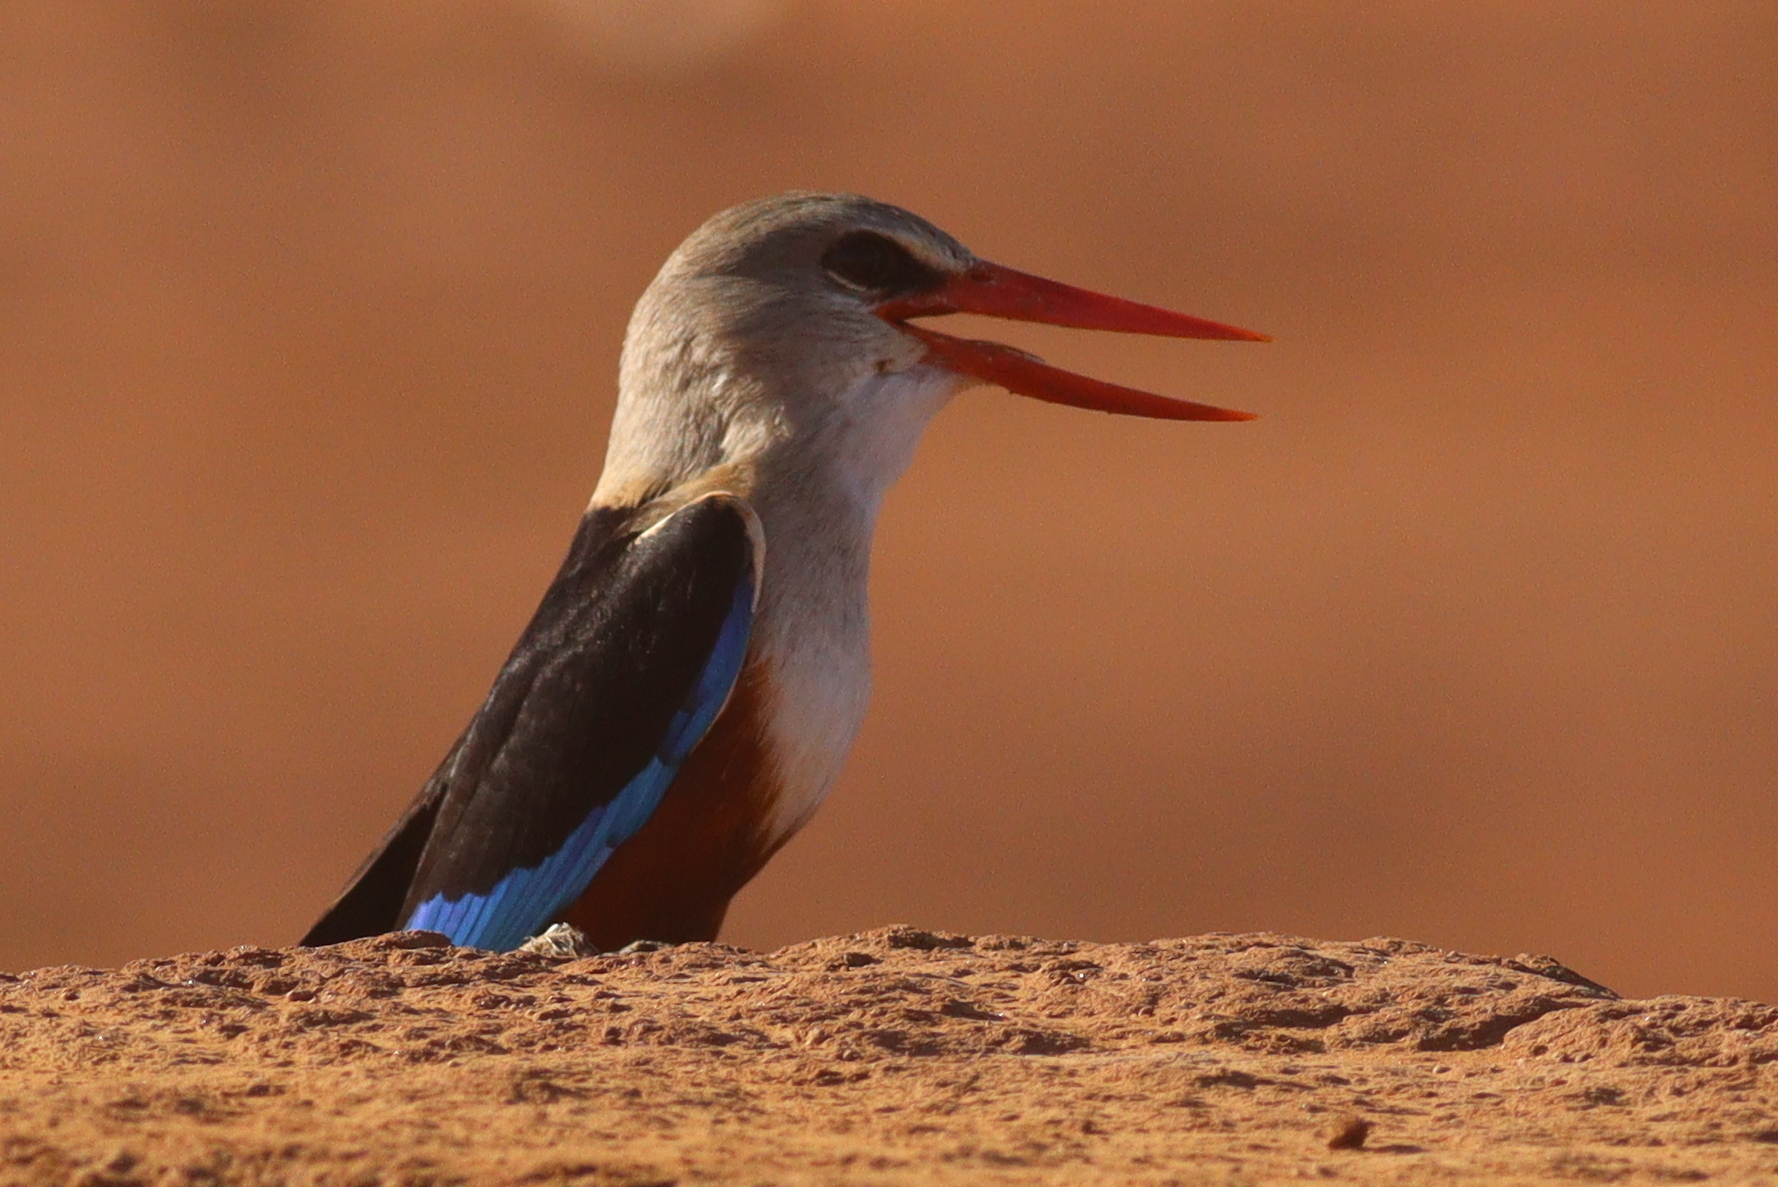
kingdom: Animalia
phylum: Chordata
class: Aves
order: Coraciiformes
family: Alcedinidae
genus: Halcyon
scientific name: Halcyon leucocephala
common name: Grey-headed kingfisher
